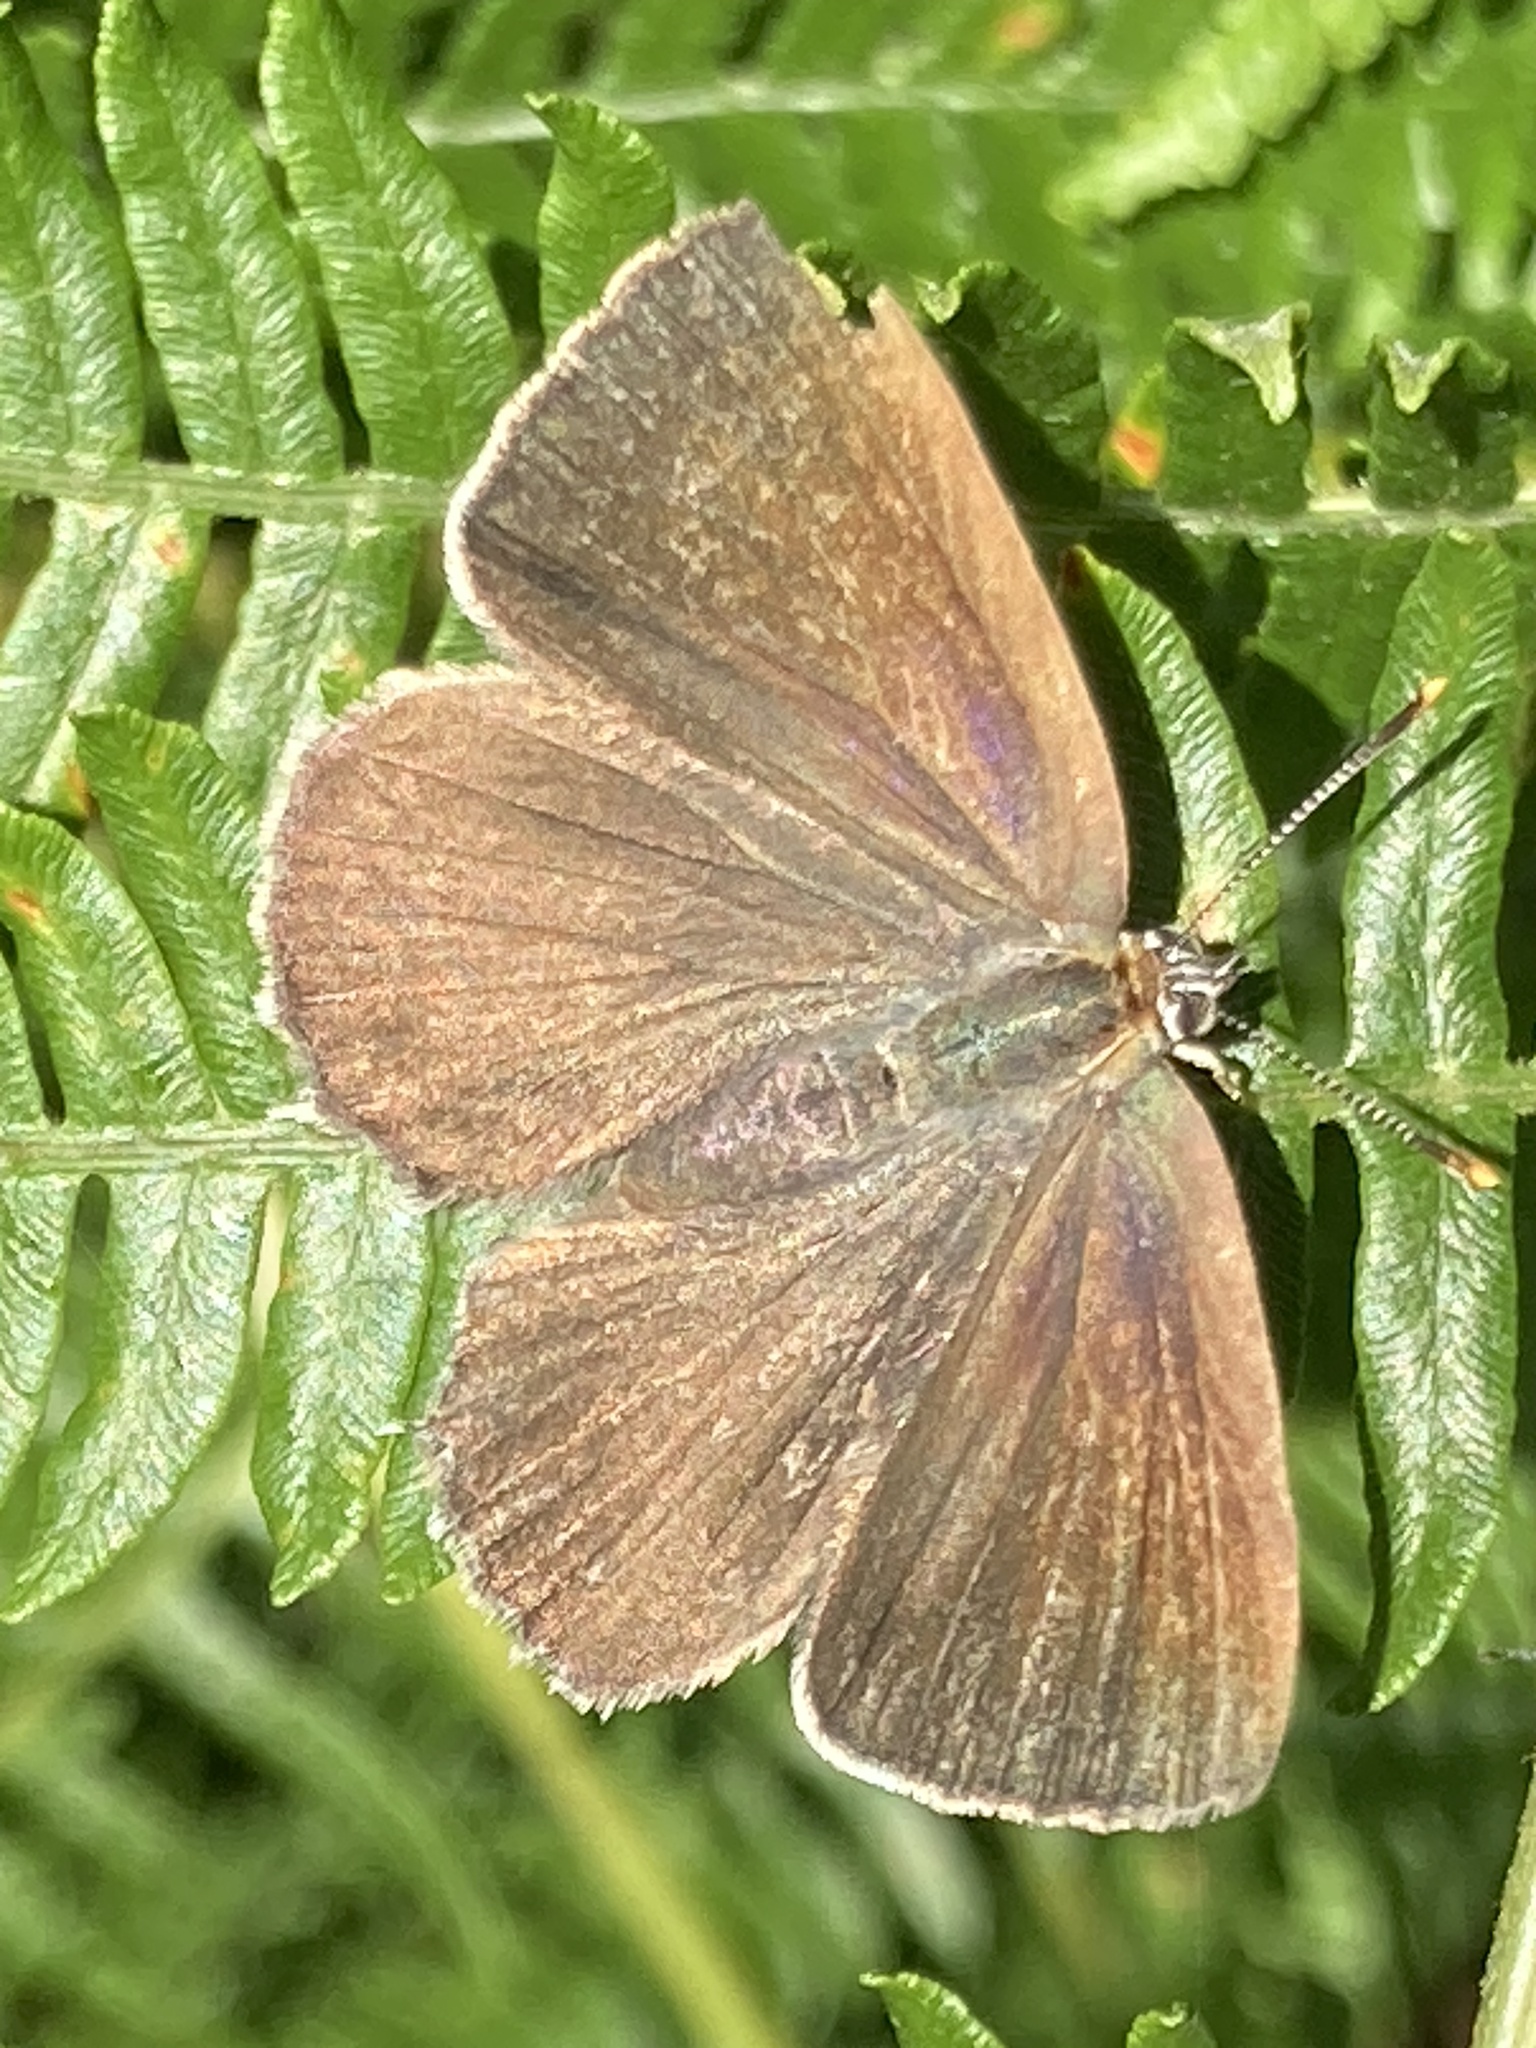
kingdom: Animalia
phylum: Arthropoda
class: Insecta
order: Lepidoptera
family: Lycaenidae
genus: Quercusia
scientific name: Quercusia quercus
